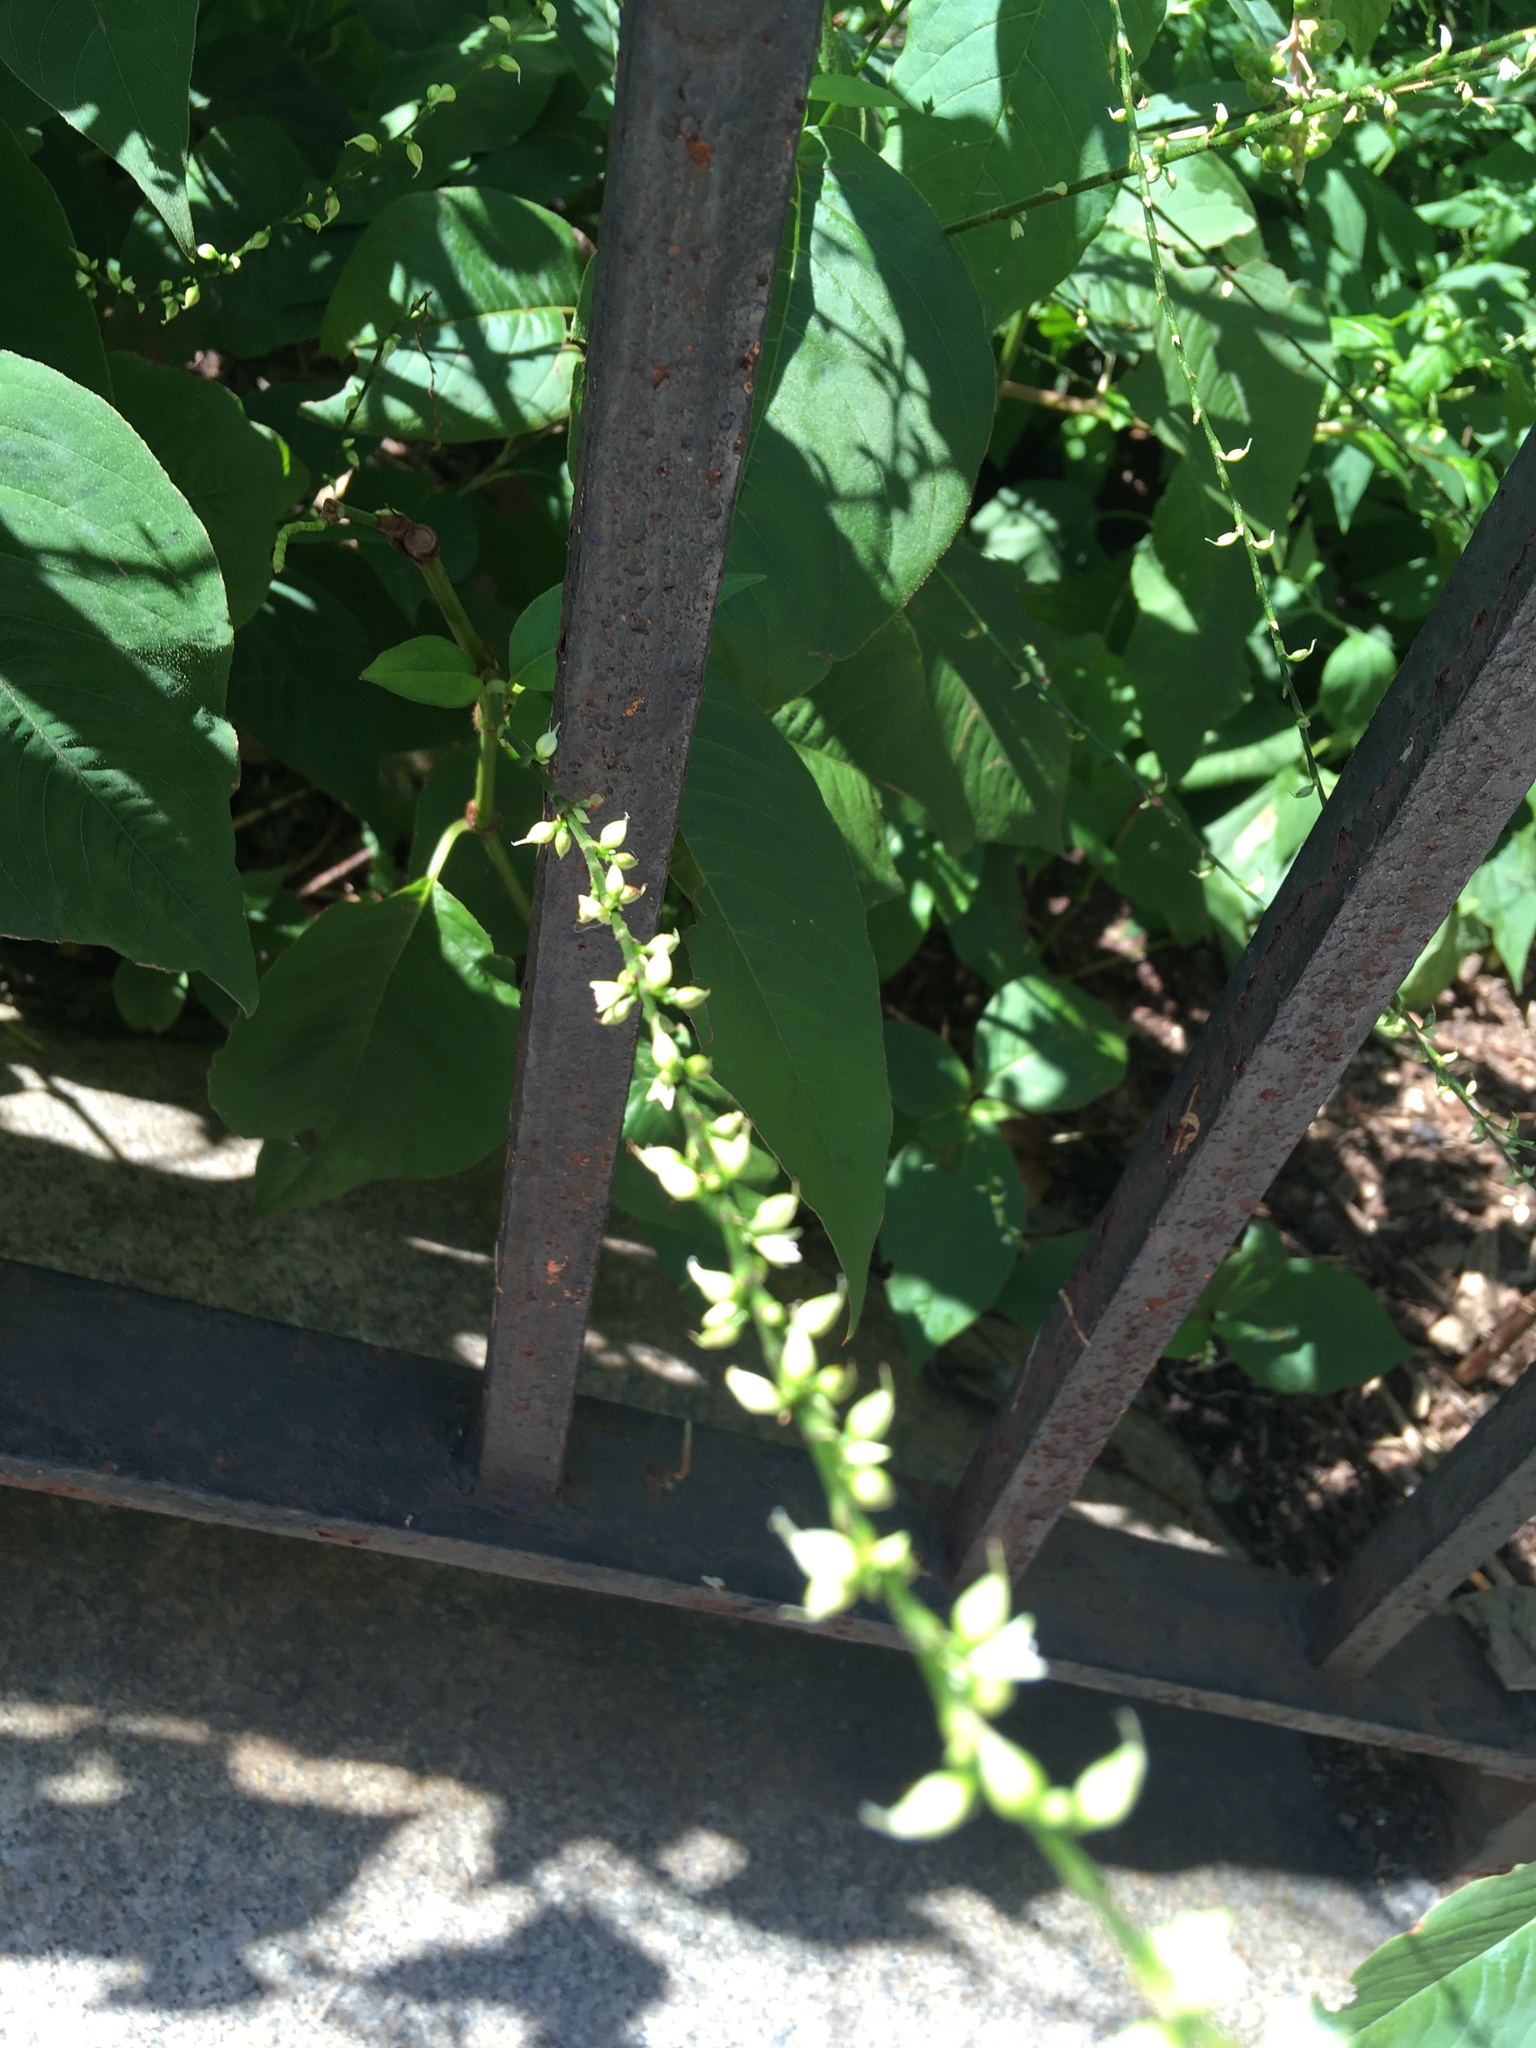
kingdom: Plantae
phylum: Tracheophyta
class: Magnoliopsida
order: Caryophyllales
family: Polygonaceae
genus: Persicaria
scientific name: Persicaria virginiana
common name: Jumpseed
